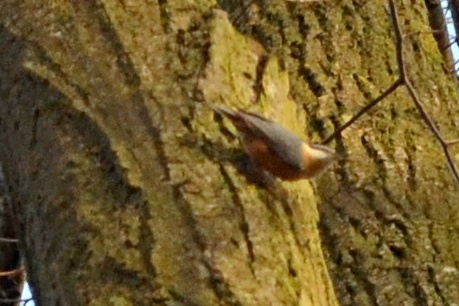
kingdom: Animalia
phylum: Chordata
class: Aves
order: Passeriformes
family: Sittidae
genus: Sitta
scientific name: Sitta europaea
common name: Eurasian nuthatch
